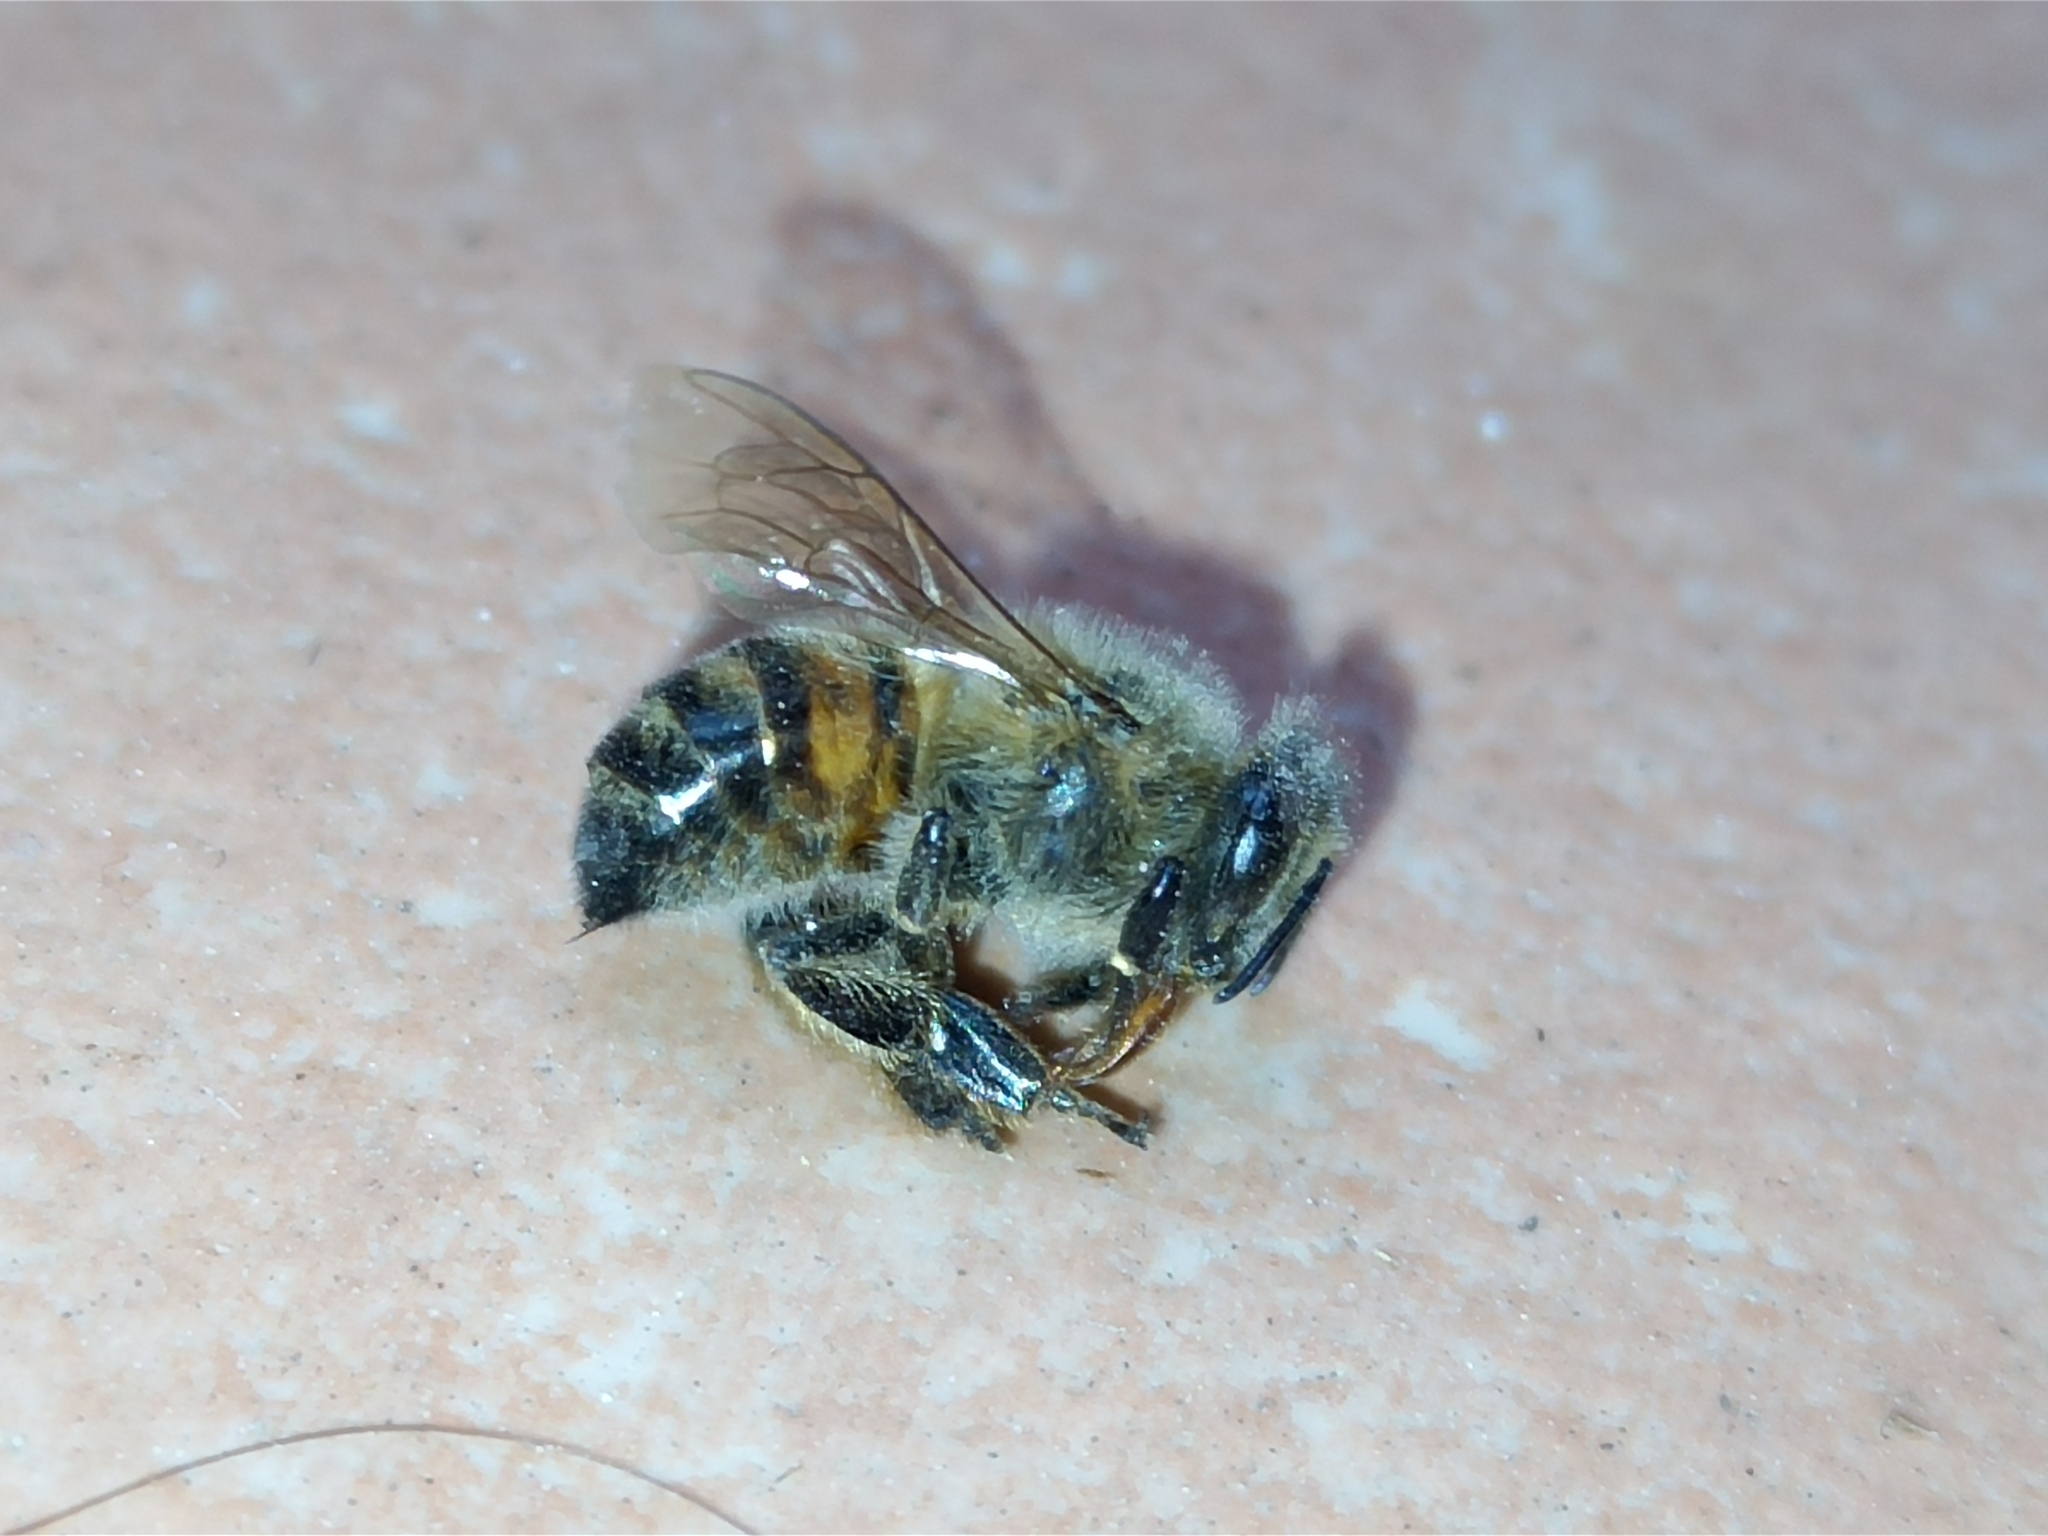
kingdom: Animalia
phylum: Arthropoda
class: Insecta
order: Hymenoptera
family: Apidae
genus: Apis
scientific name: Apis mellifera
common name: Honey bee
